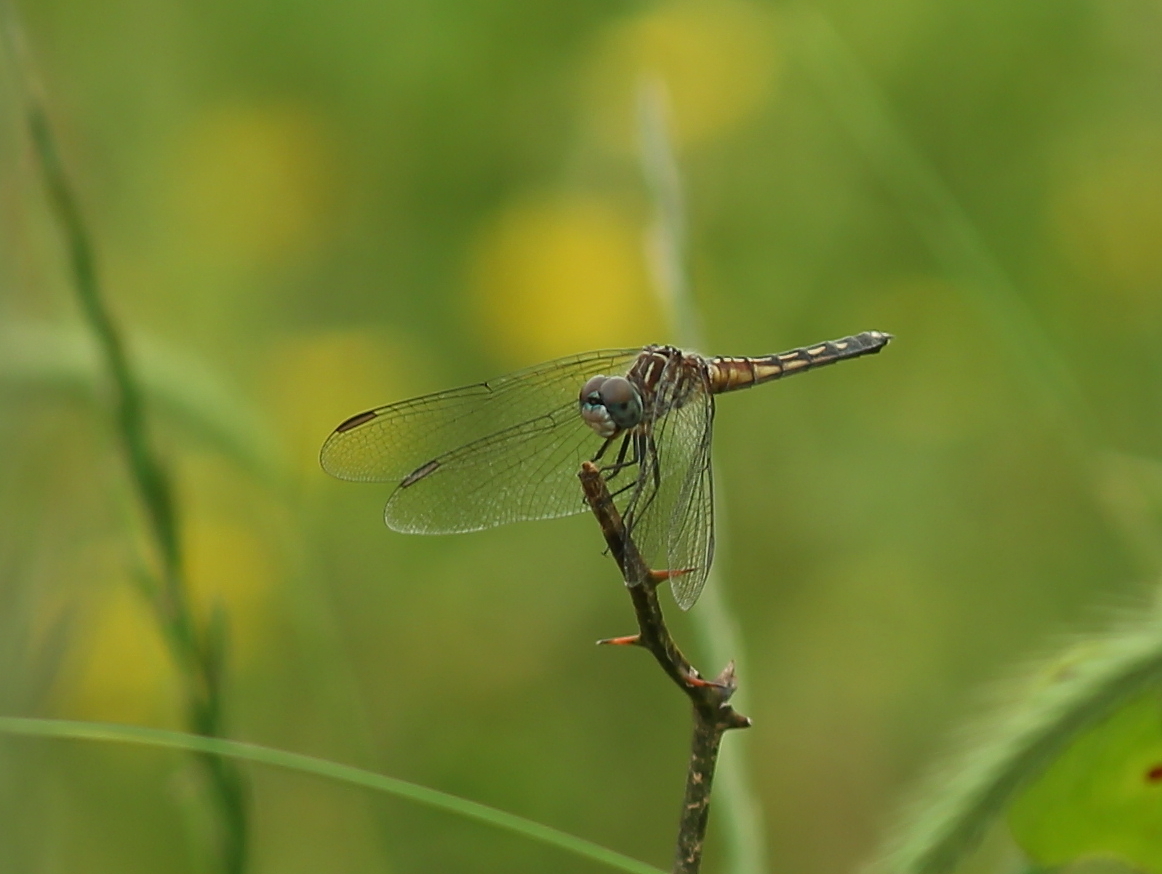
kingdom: Animalia
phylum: Arthropoda
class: Insecta
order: Odonata
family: Libellulidae
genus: Pachydiplax
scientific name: Pachydiplax longipennis
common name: Blue dasher
